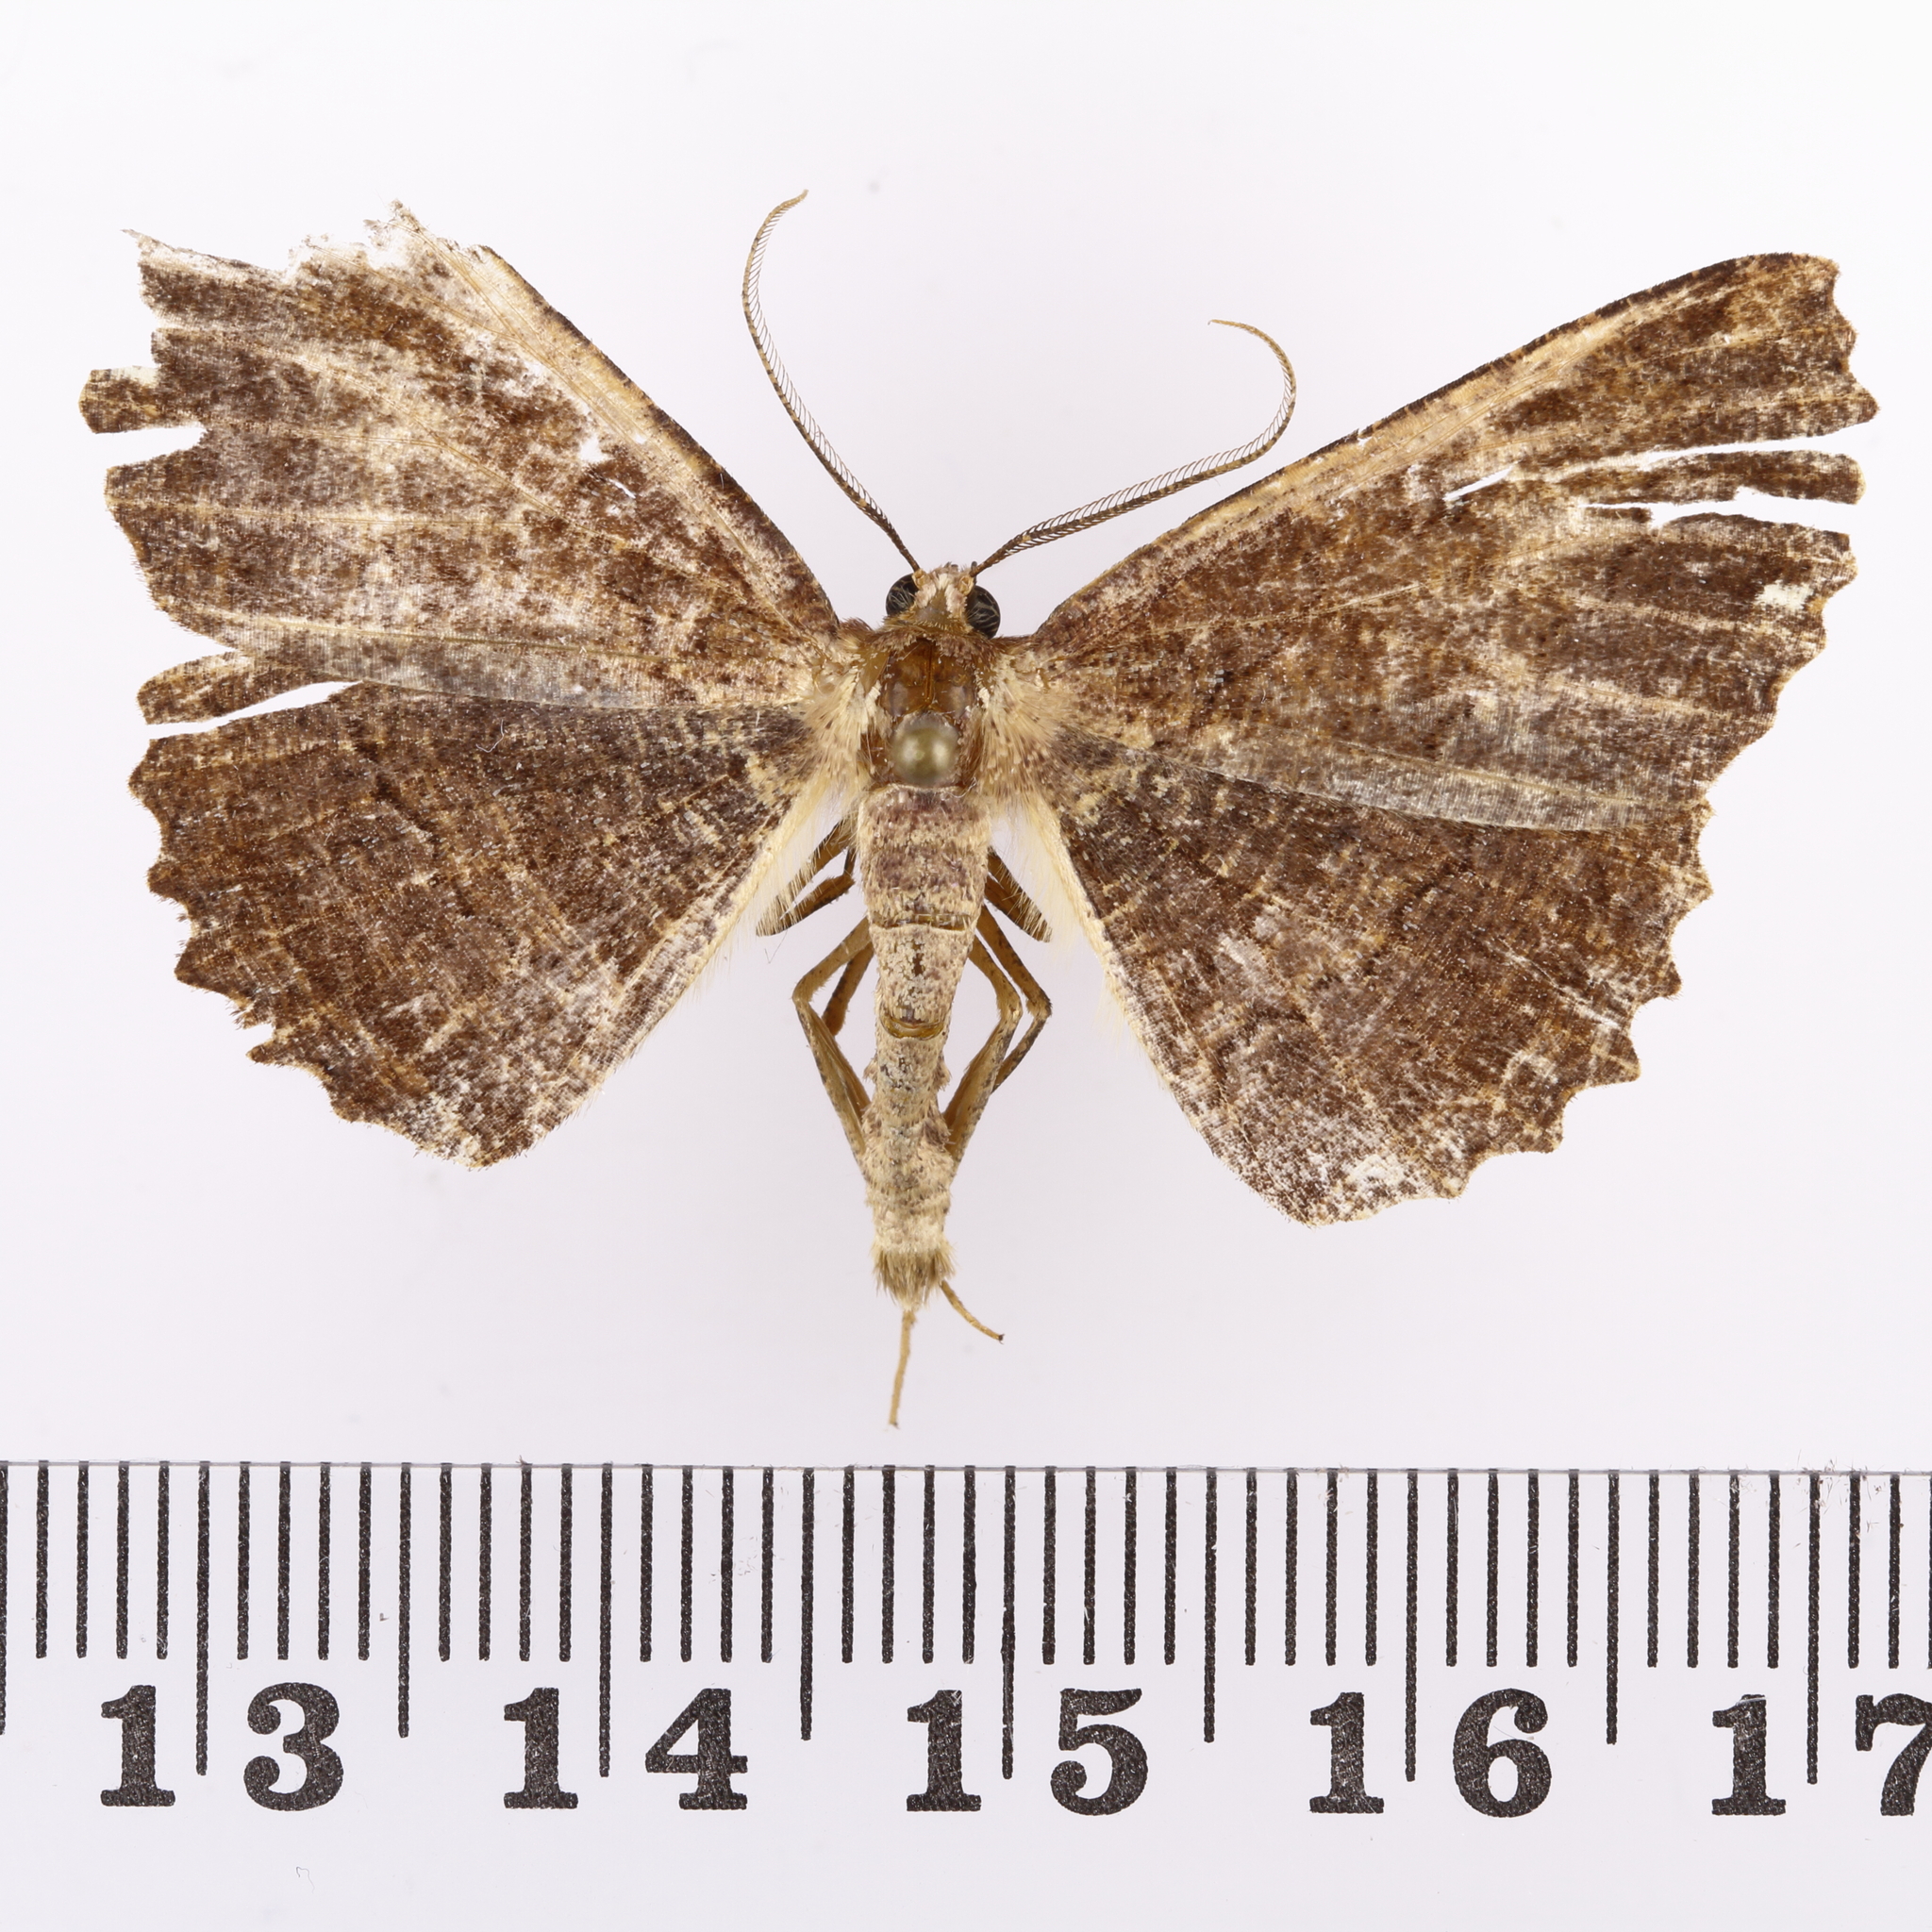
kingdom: Animalia
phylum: Arthropoda
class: Insecta
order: Lepidoptera
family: Geometridae
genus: Gellonia
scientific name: Gellonia dejectaria
